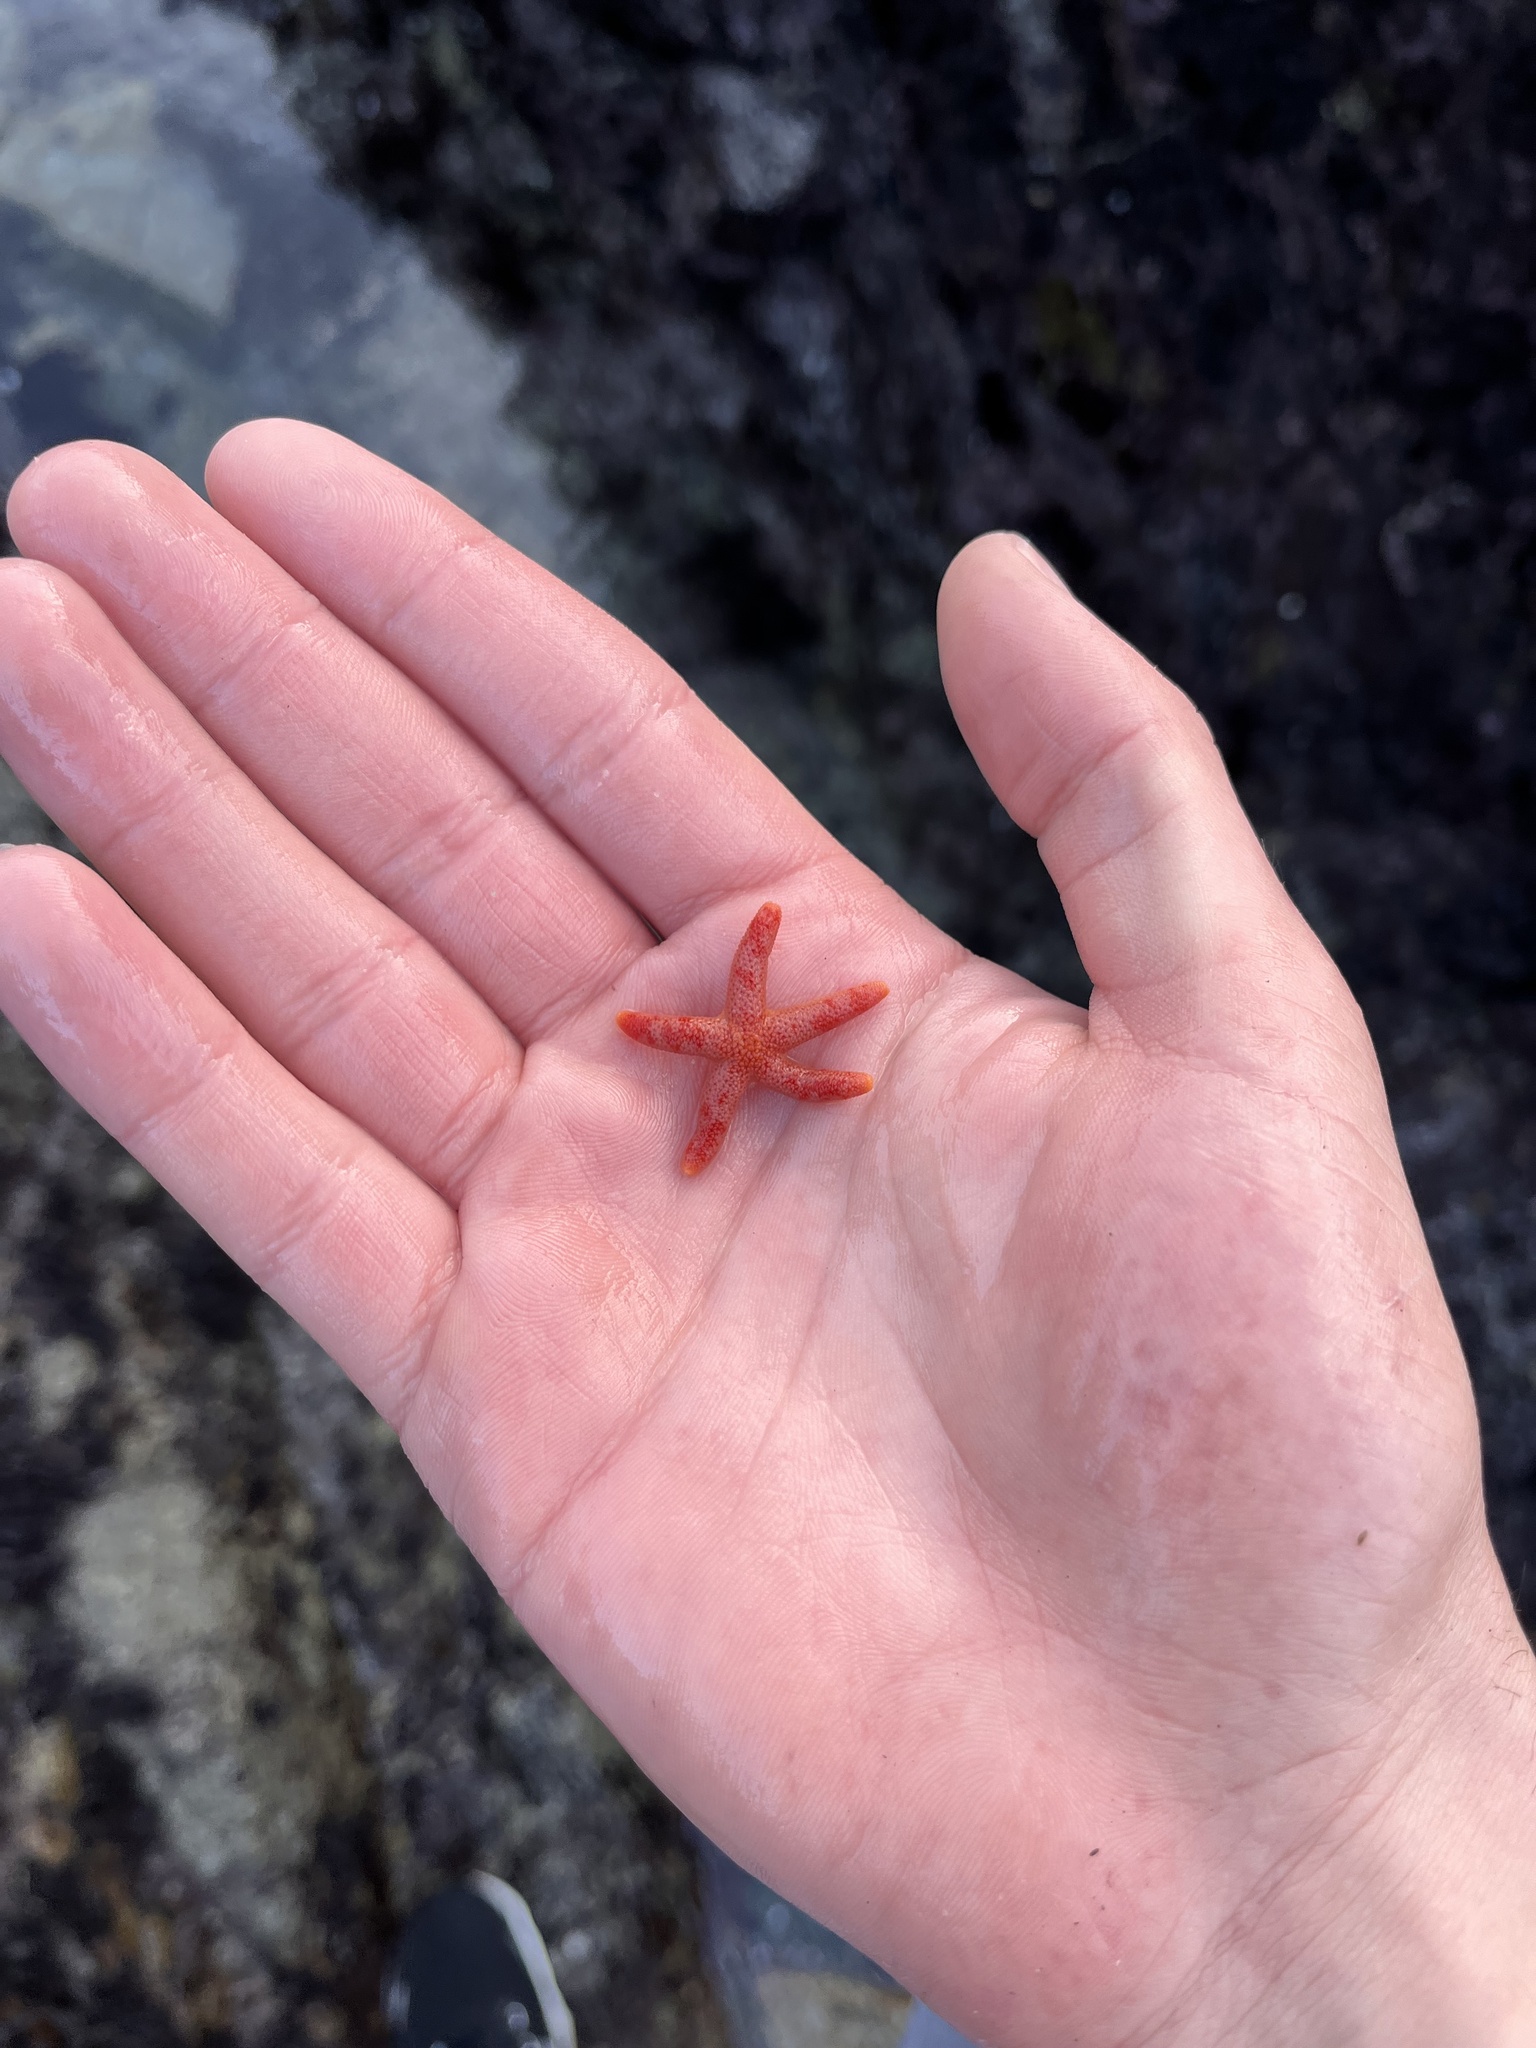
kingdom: Animalia
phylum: Echinodermata
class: Asteroidea
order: Spinulosida
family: Echinasteridae
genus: Henricia
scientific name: Henricia pumila
